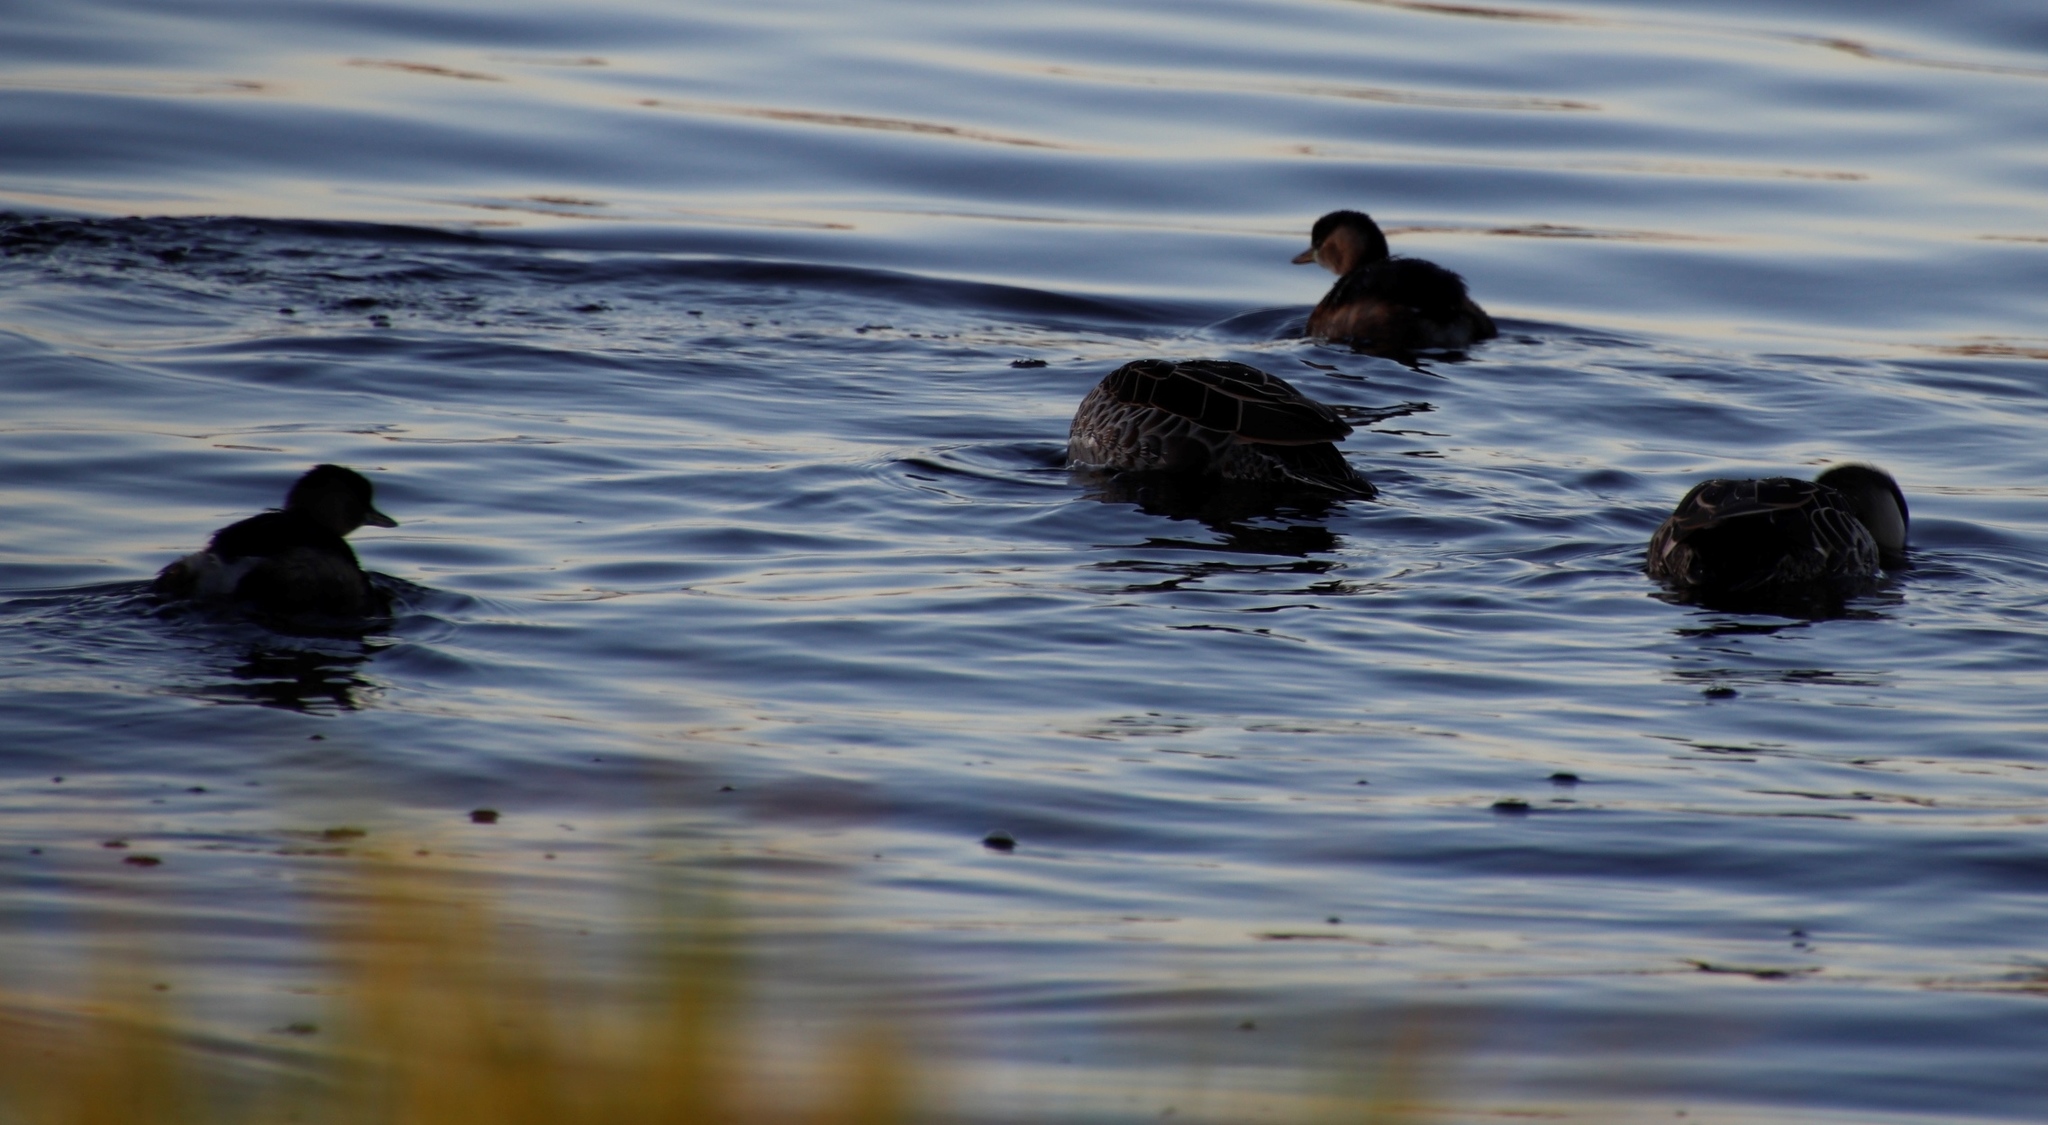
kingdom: Animalia
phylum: Chordata
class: Aves
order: Podicipediformes
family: Podicipedidae
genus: Tachybaptus
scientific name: Tachybaptus ruficollis
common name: Little grebe
